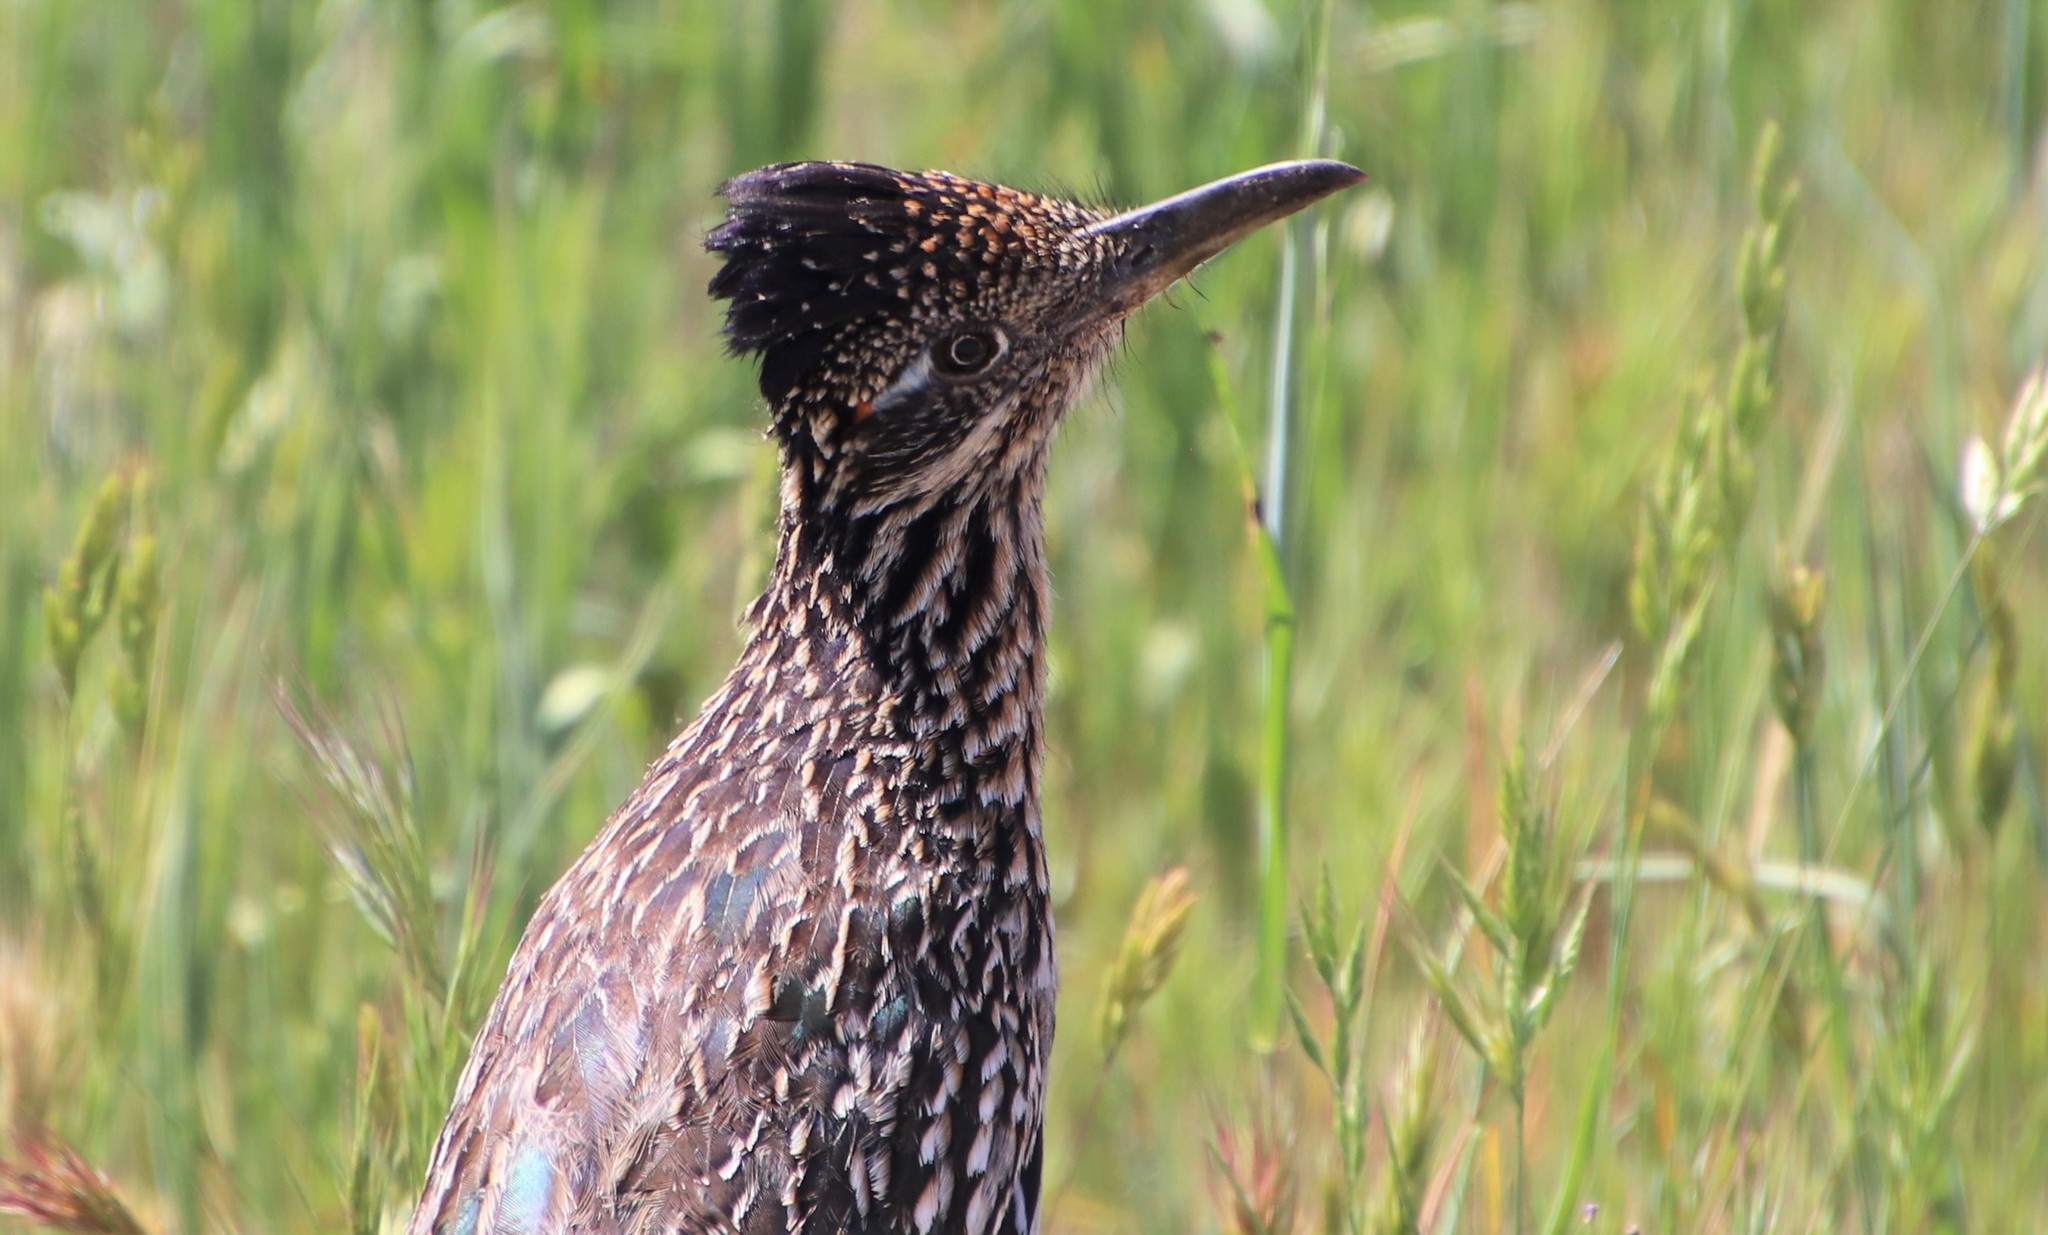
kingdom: Animalia
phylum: Chordata
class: Aves
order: Cuculiformes
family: Cuculidae
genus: Geococcyx
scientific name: Geococcyx californianus
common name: Greater roadrunner
